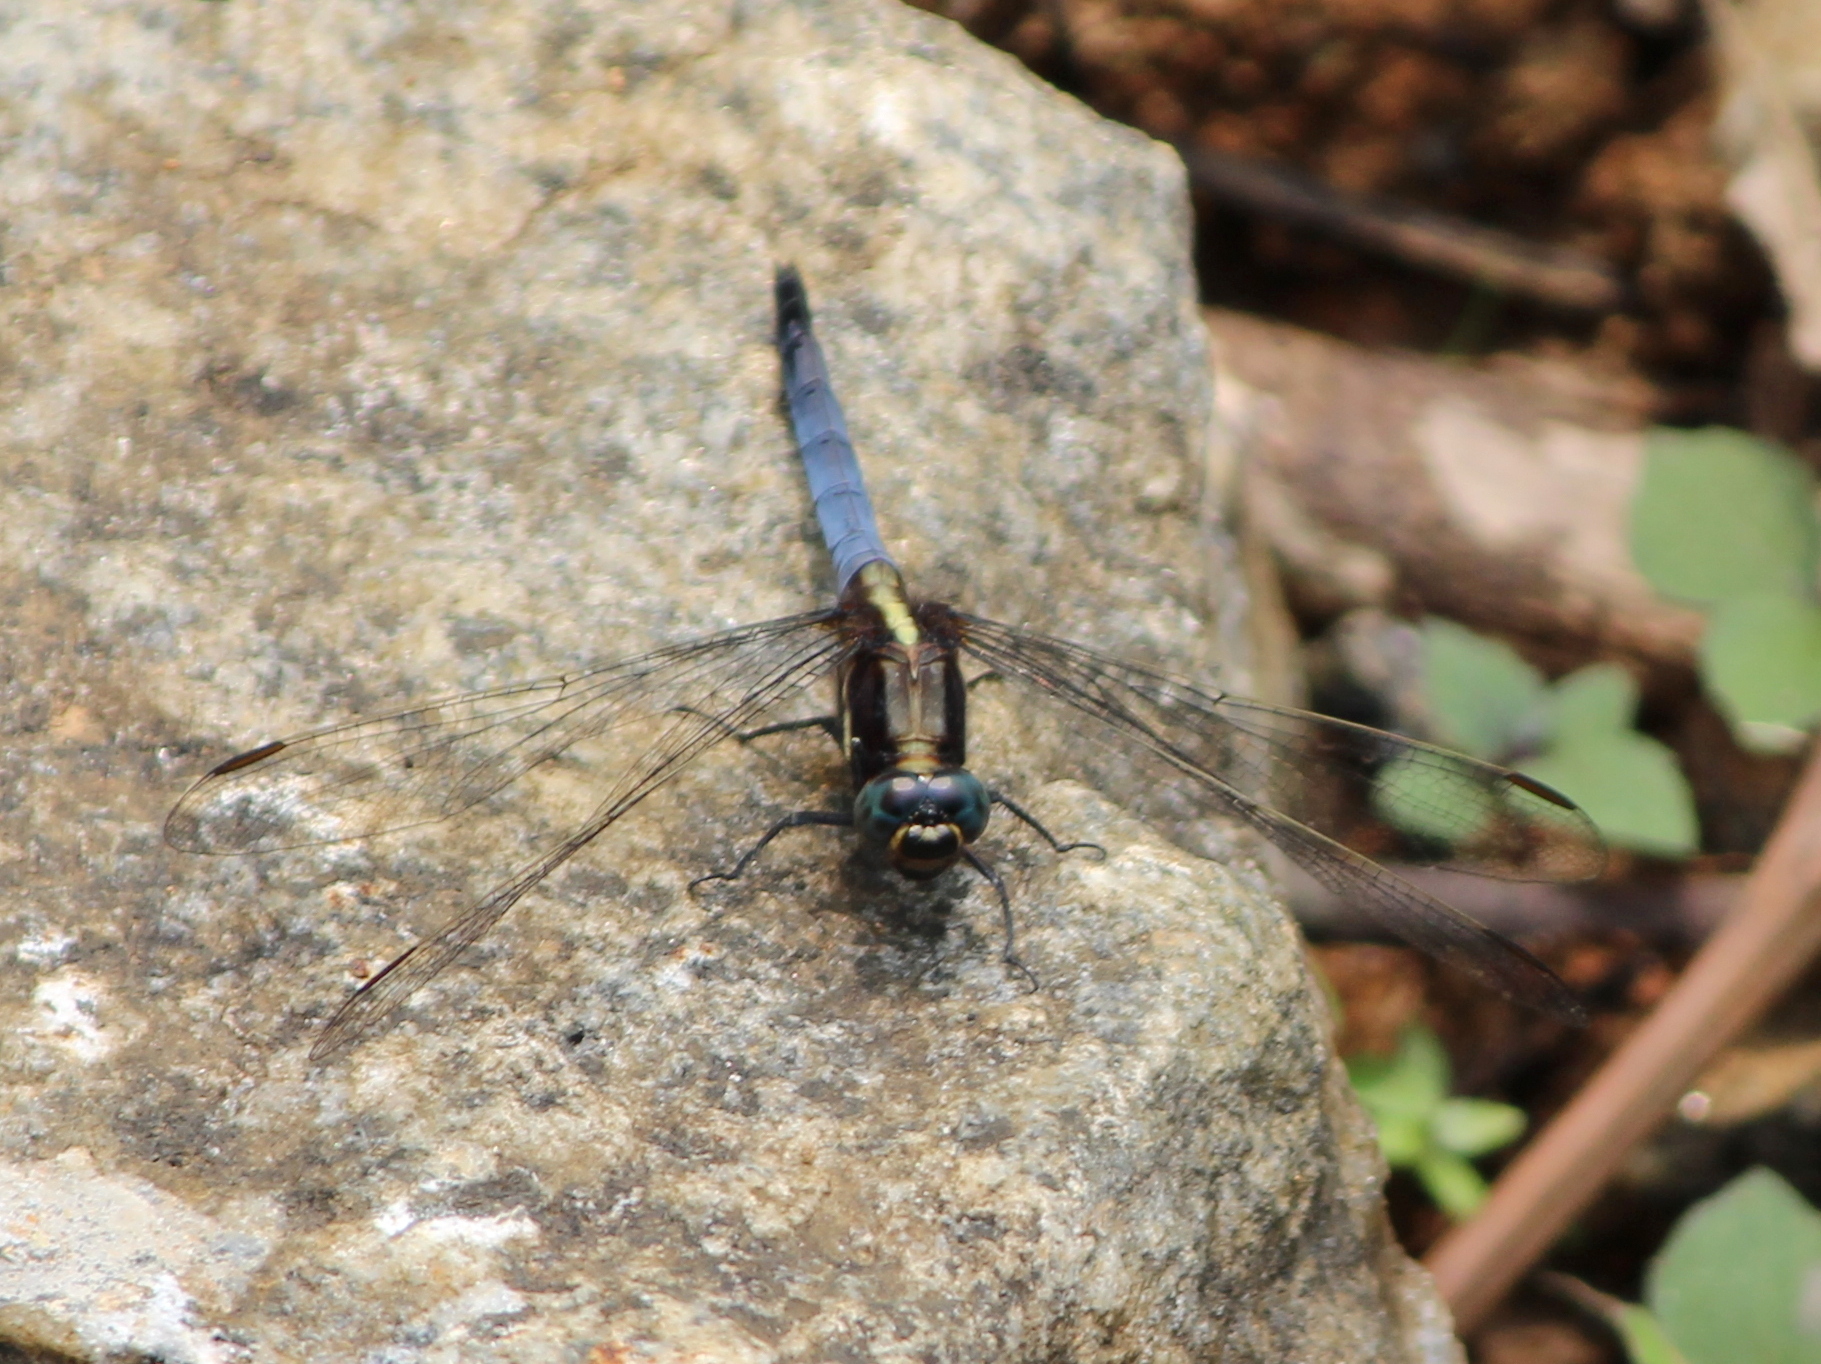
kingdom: Animalia
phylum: Arthropoda
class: Insecta
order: Odonata
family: Libellulidae
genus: Orthetrum
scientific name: Orthetrum luzonicum
